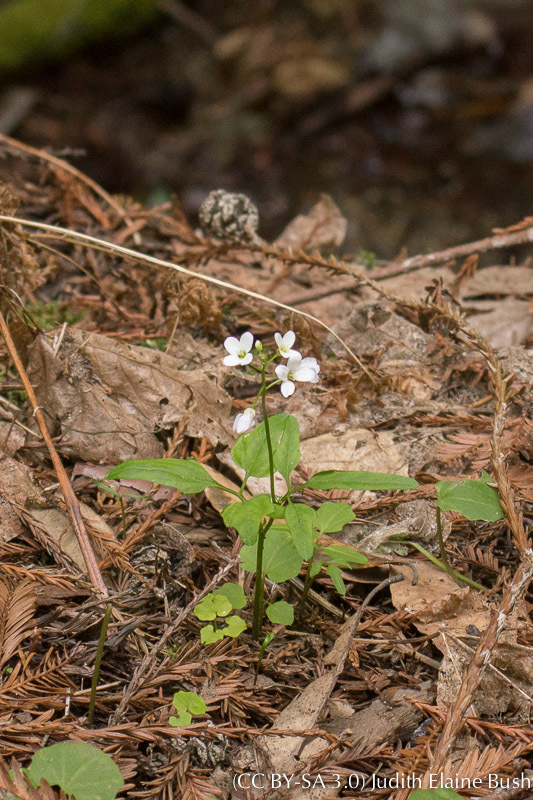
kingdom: Plantae
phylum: Tracheophyta
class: Magnoliopsida
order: Brassicales
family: Brassicaceae
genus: Cardamine
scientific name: Cardamine californica
